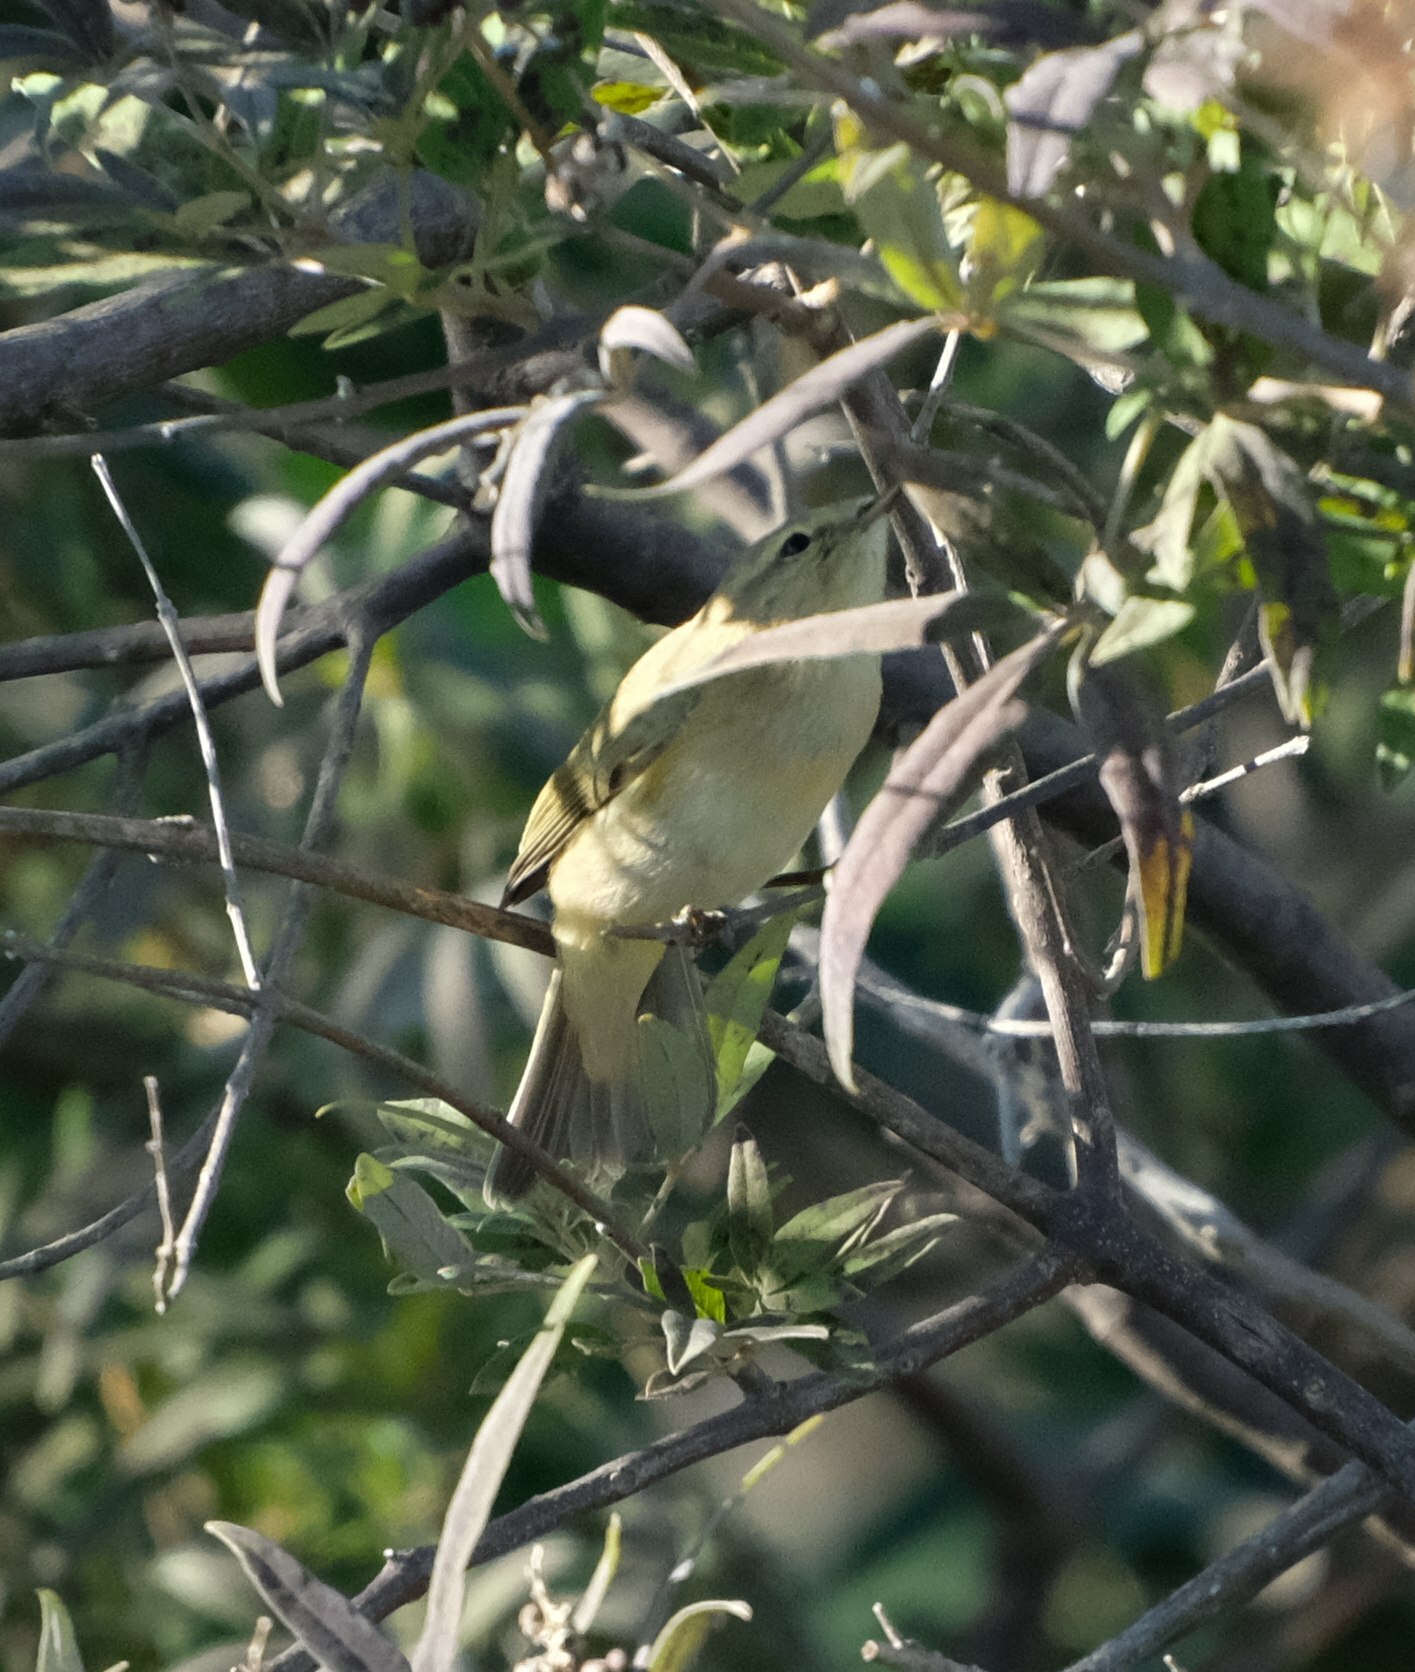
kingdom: Animalia
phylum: Chordata
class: Aves
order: Passeriformes
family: Phylloscopidae
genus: Phylloscopus
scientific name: Phylloscopus collybita
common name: Common chiffchaff
